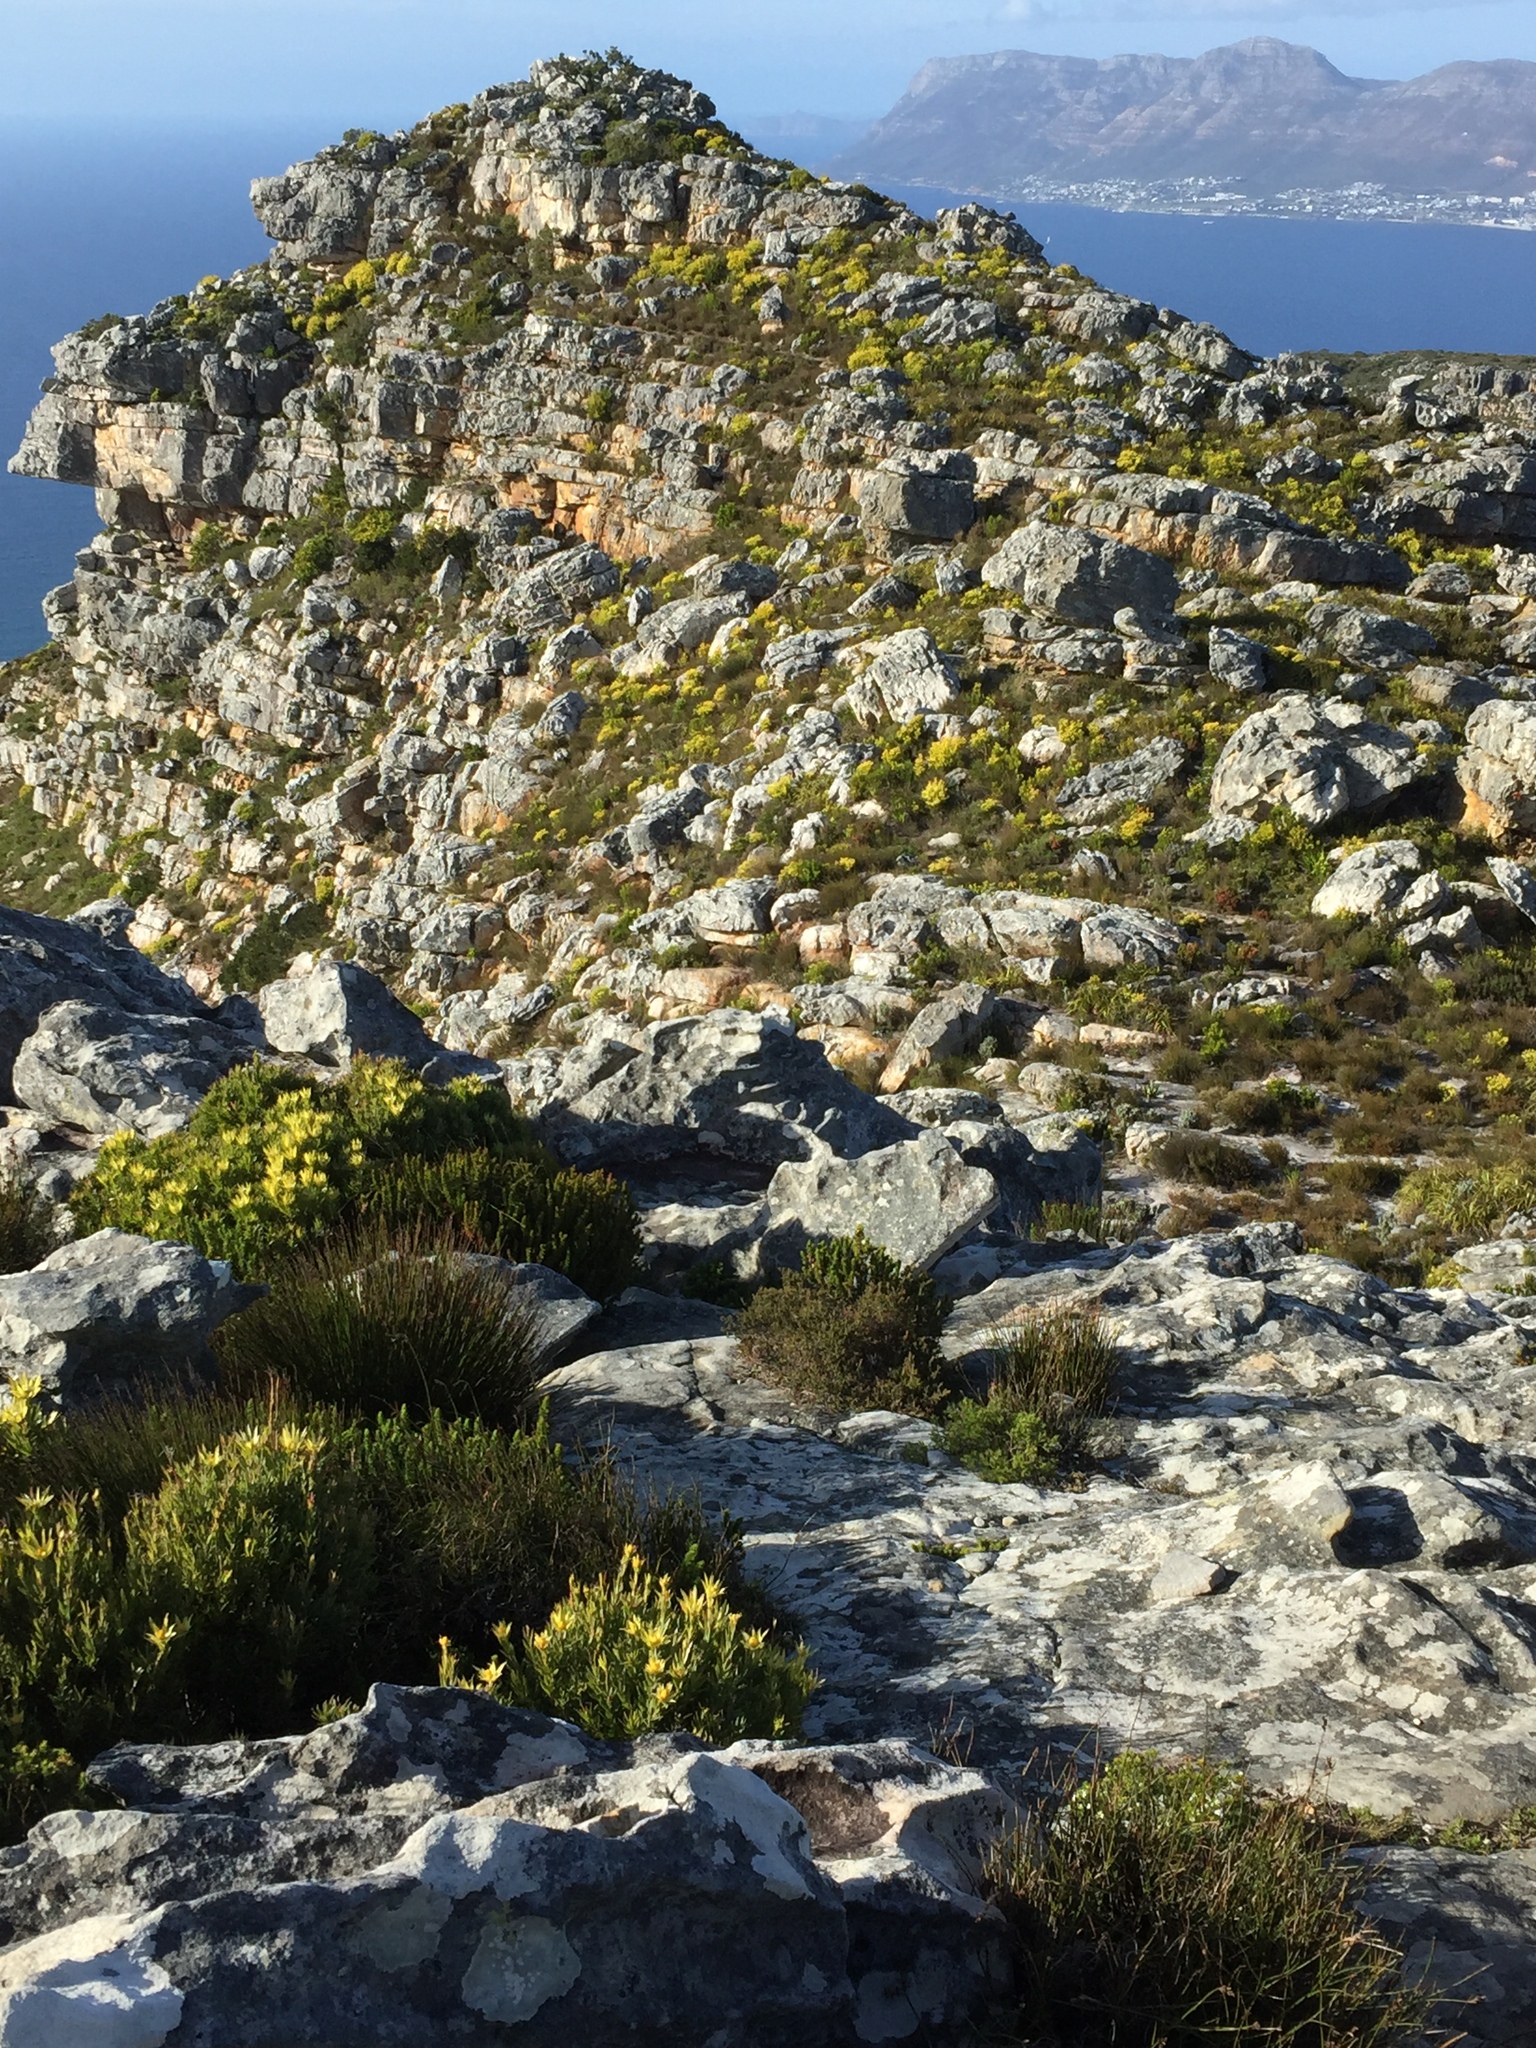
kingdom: Plantae
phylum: Tracheophyta
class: Magnoliopsida
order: Proteales
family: Proteaceae
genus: Leucadendron
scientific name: Leucadendron xanthoconus
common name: Sickle-leaf conebush
